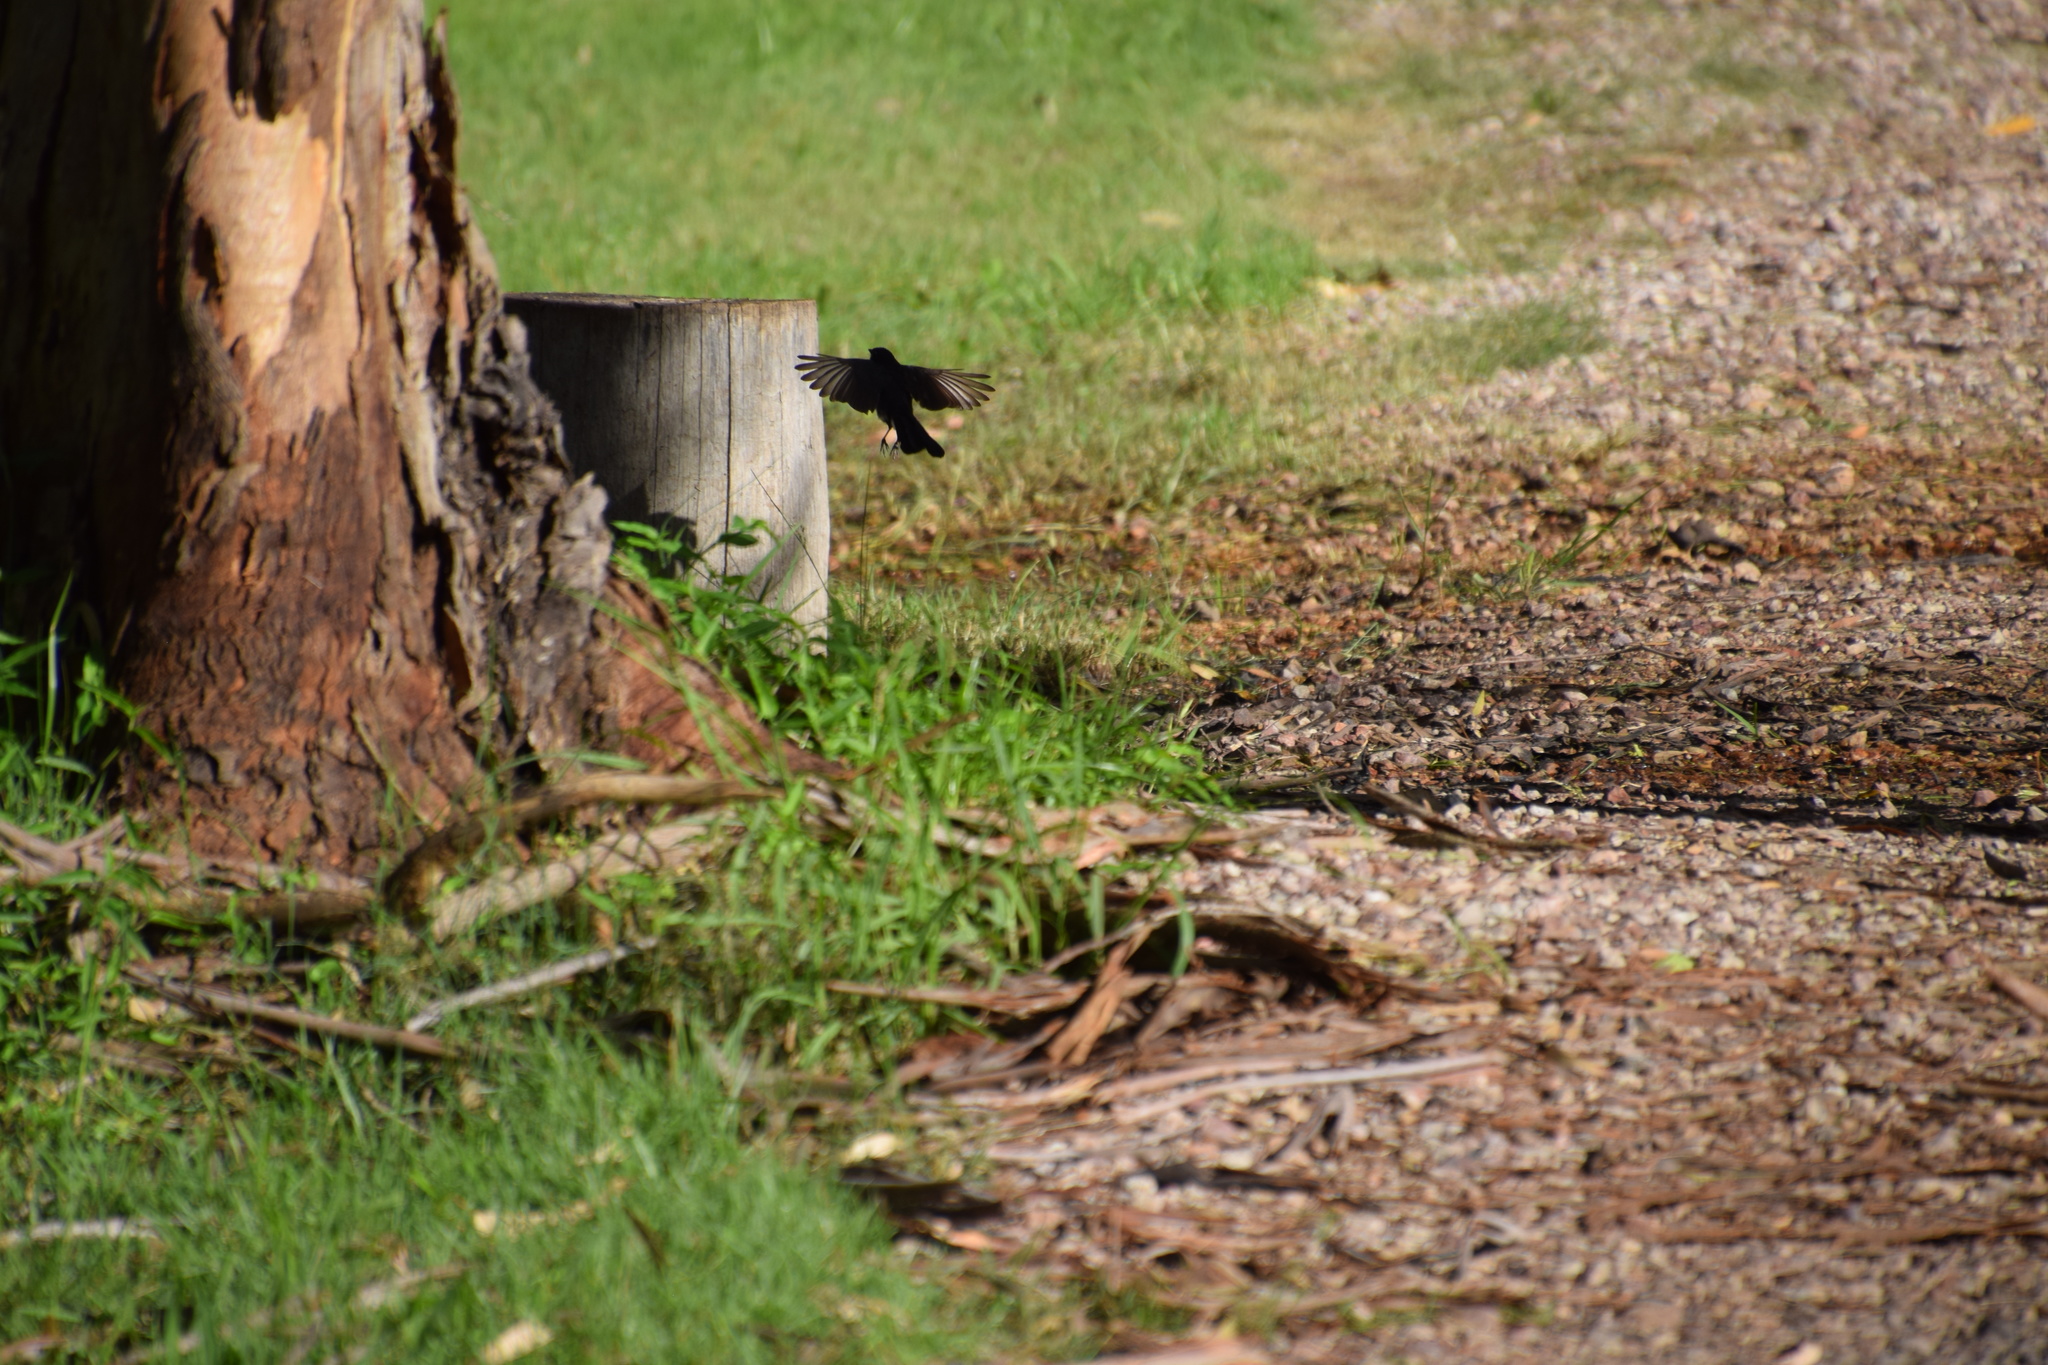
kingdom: Animalia
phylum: Chordata
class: Aves
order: Passeriformes
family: Rhipiduridae
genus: Rhipidura
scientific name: Rhipidura leucophrys
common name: Willie wagtail
